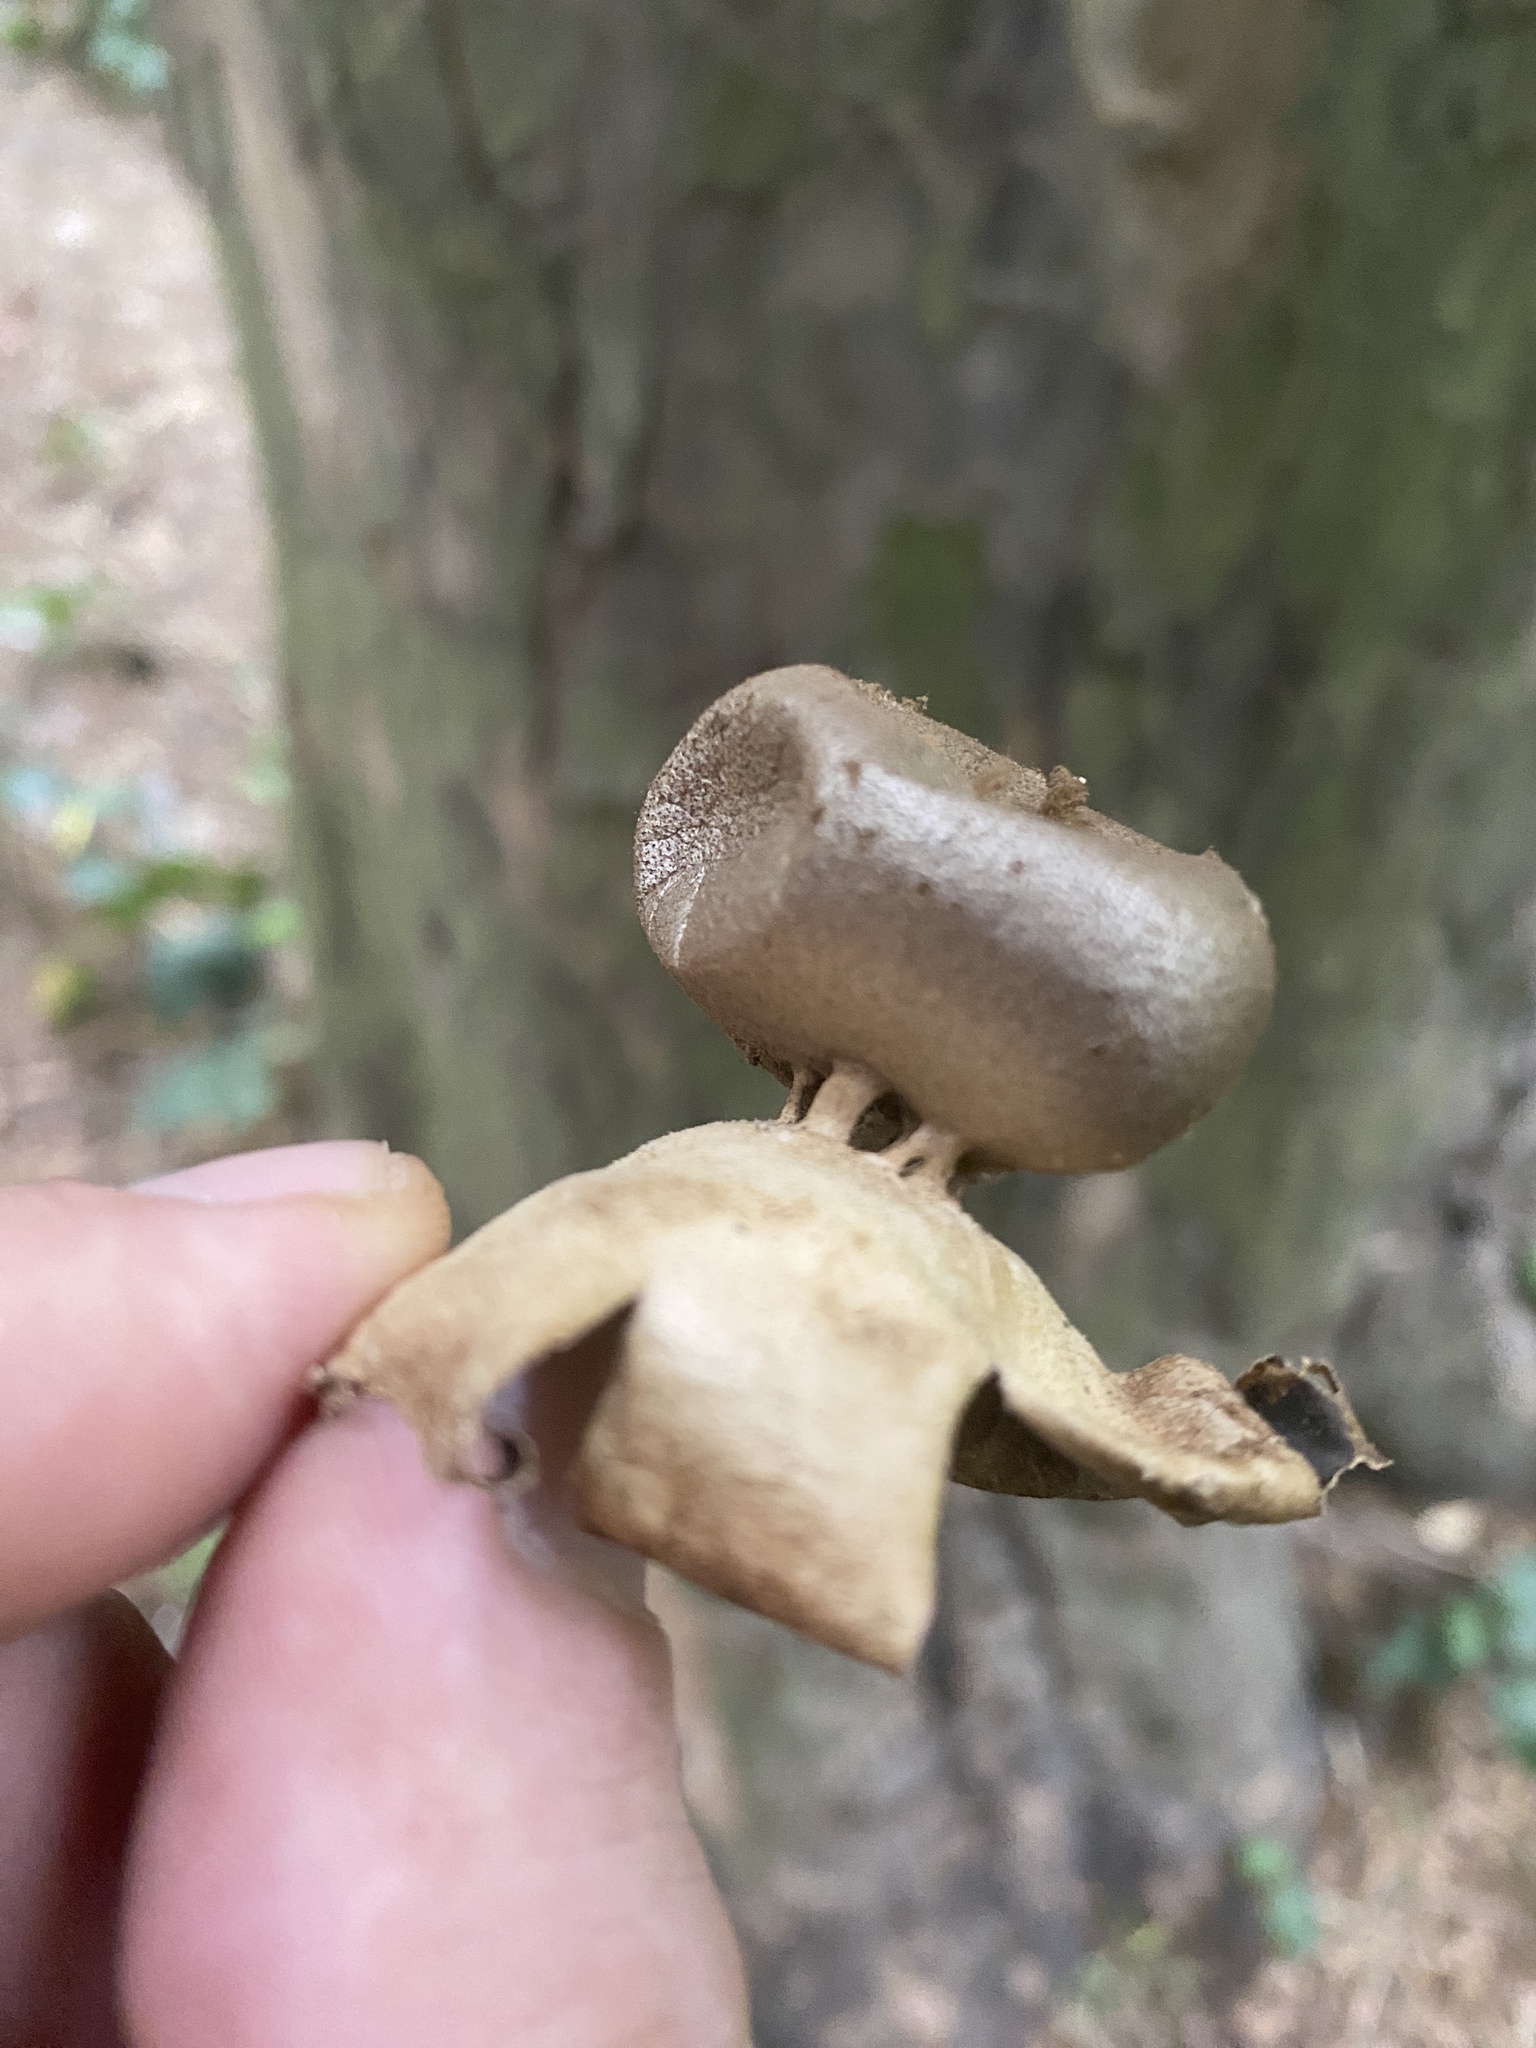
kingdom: Fungi
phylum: Basidiomycota
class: Agaricomycetes
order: Geastrales
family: Geastraceae
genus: Myriostoma
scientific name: Myriostoma calongei
